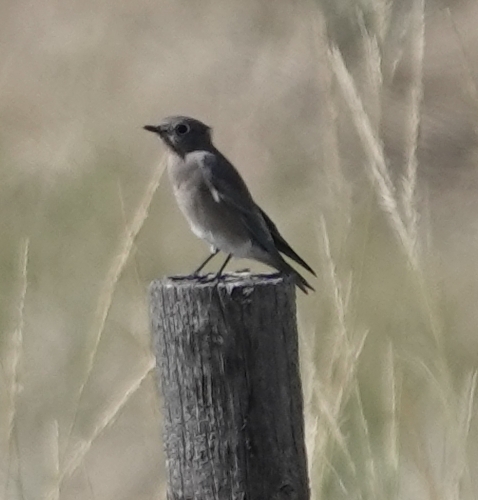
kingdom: Animalia
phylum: Chordata
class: Aves
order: Passeriformes
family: Turdidae
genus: Sialia
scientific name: Sialia currucoides
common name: Mountain bluebird
